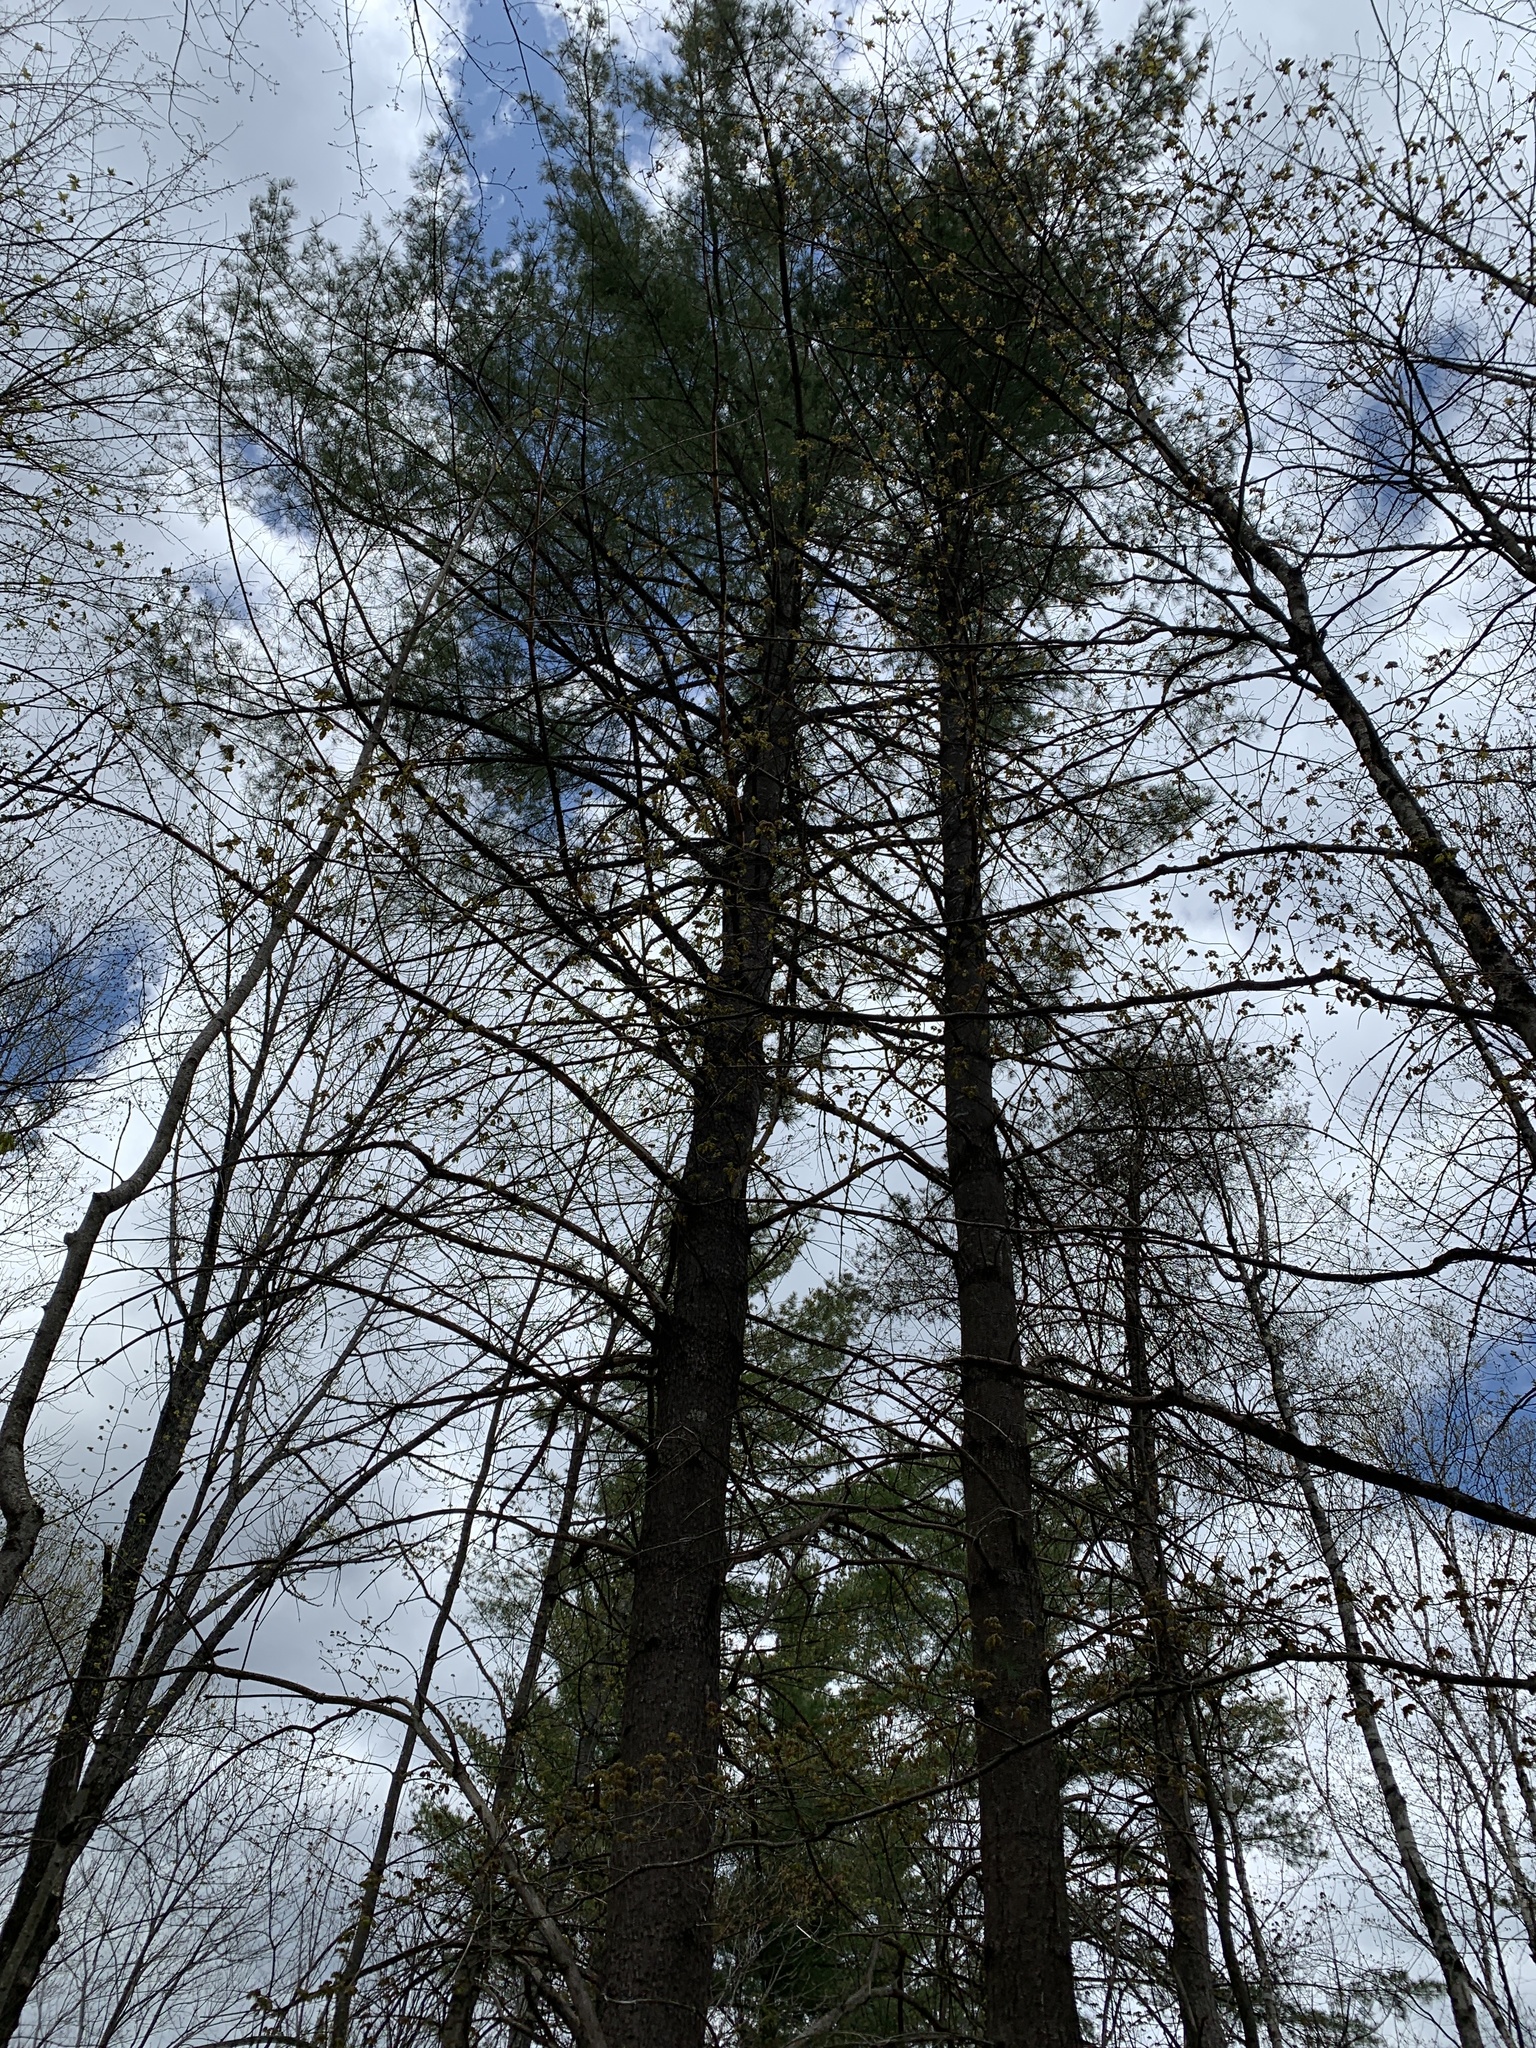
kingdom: Plantae
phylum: Tracheophyta
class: Pinopsida
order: Pinales
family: Pinaceae
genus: Pinus
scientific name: Pinus strobus
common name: Weymouth pine
